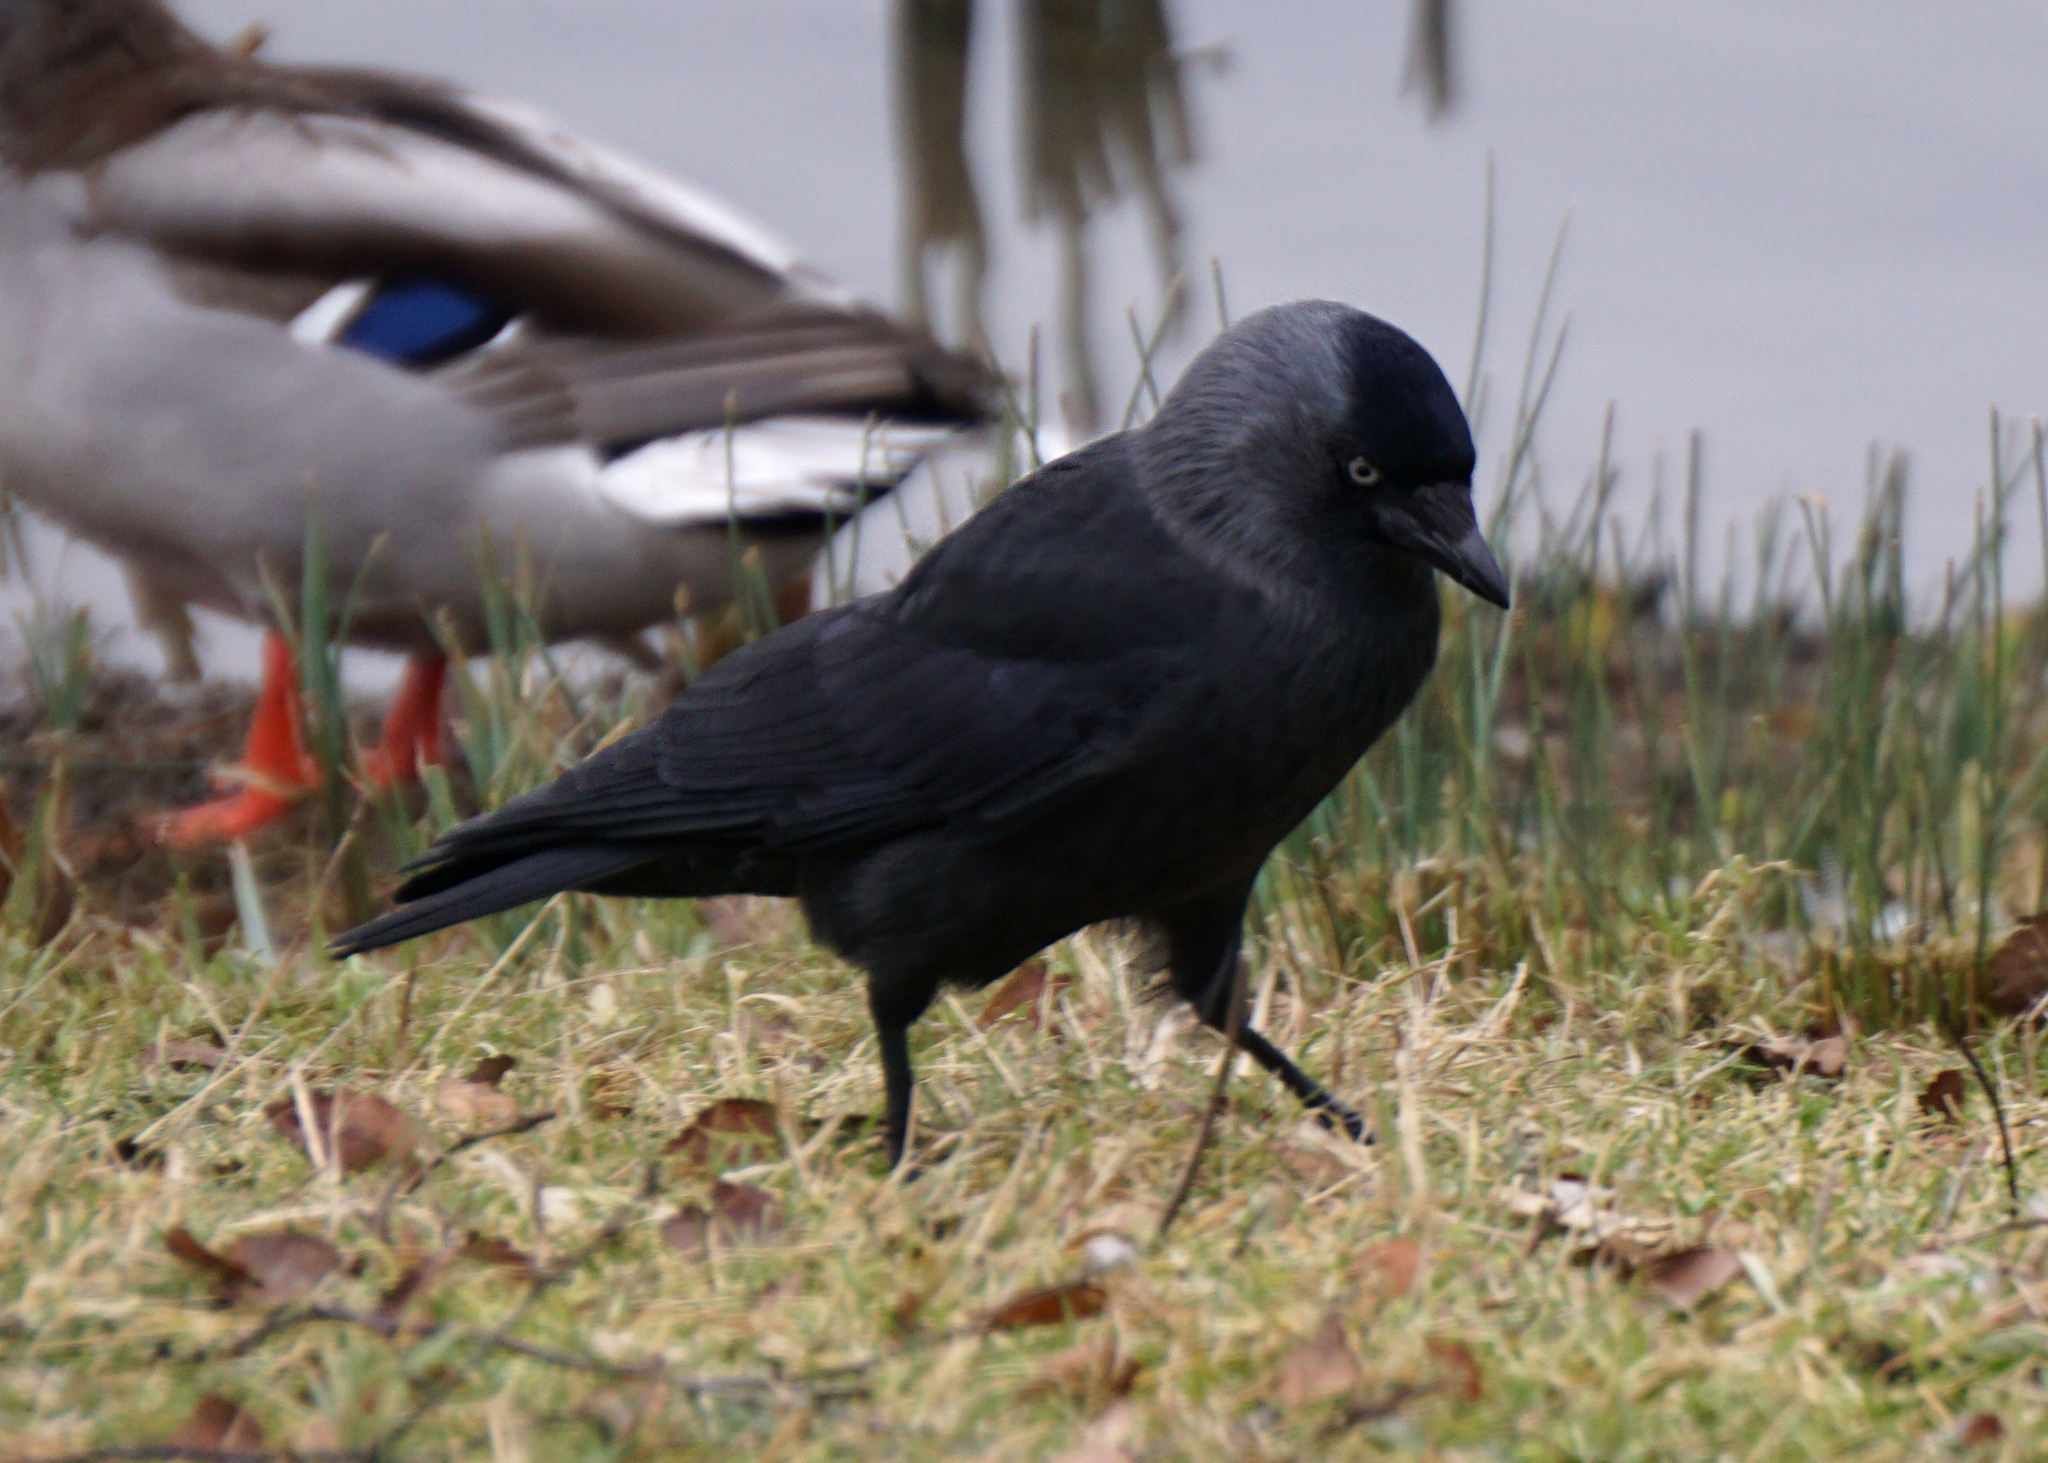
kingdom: Animalia
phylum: Chordata
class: Aves
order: Passeriformes
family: Corvidae
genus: Coloeus
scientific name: Coloeus monedula
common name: Western jackdaw
